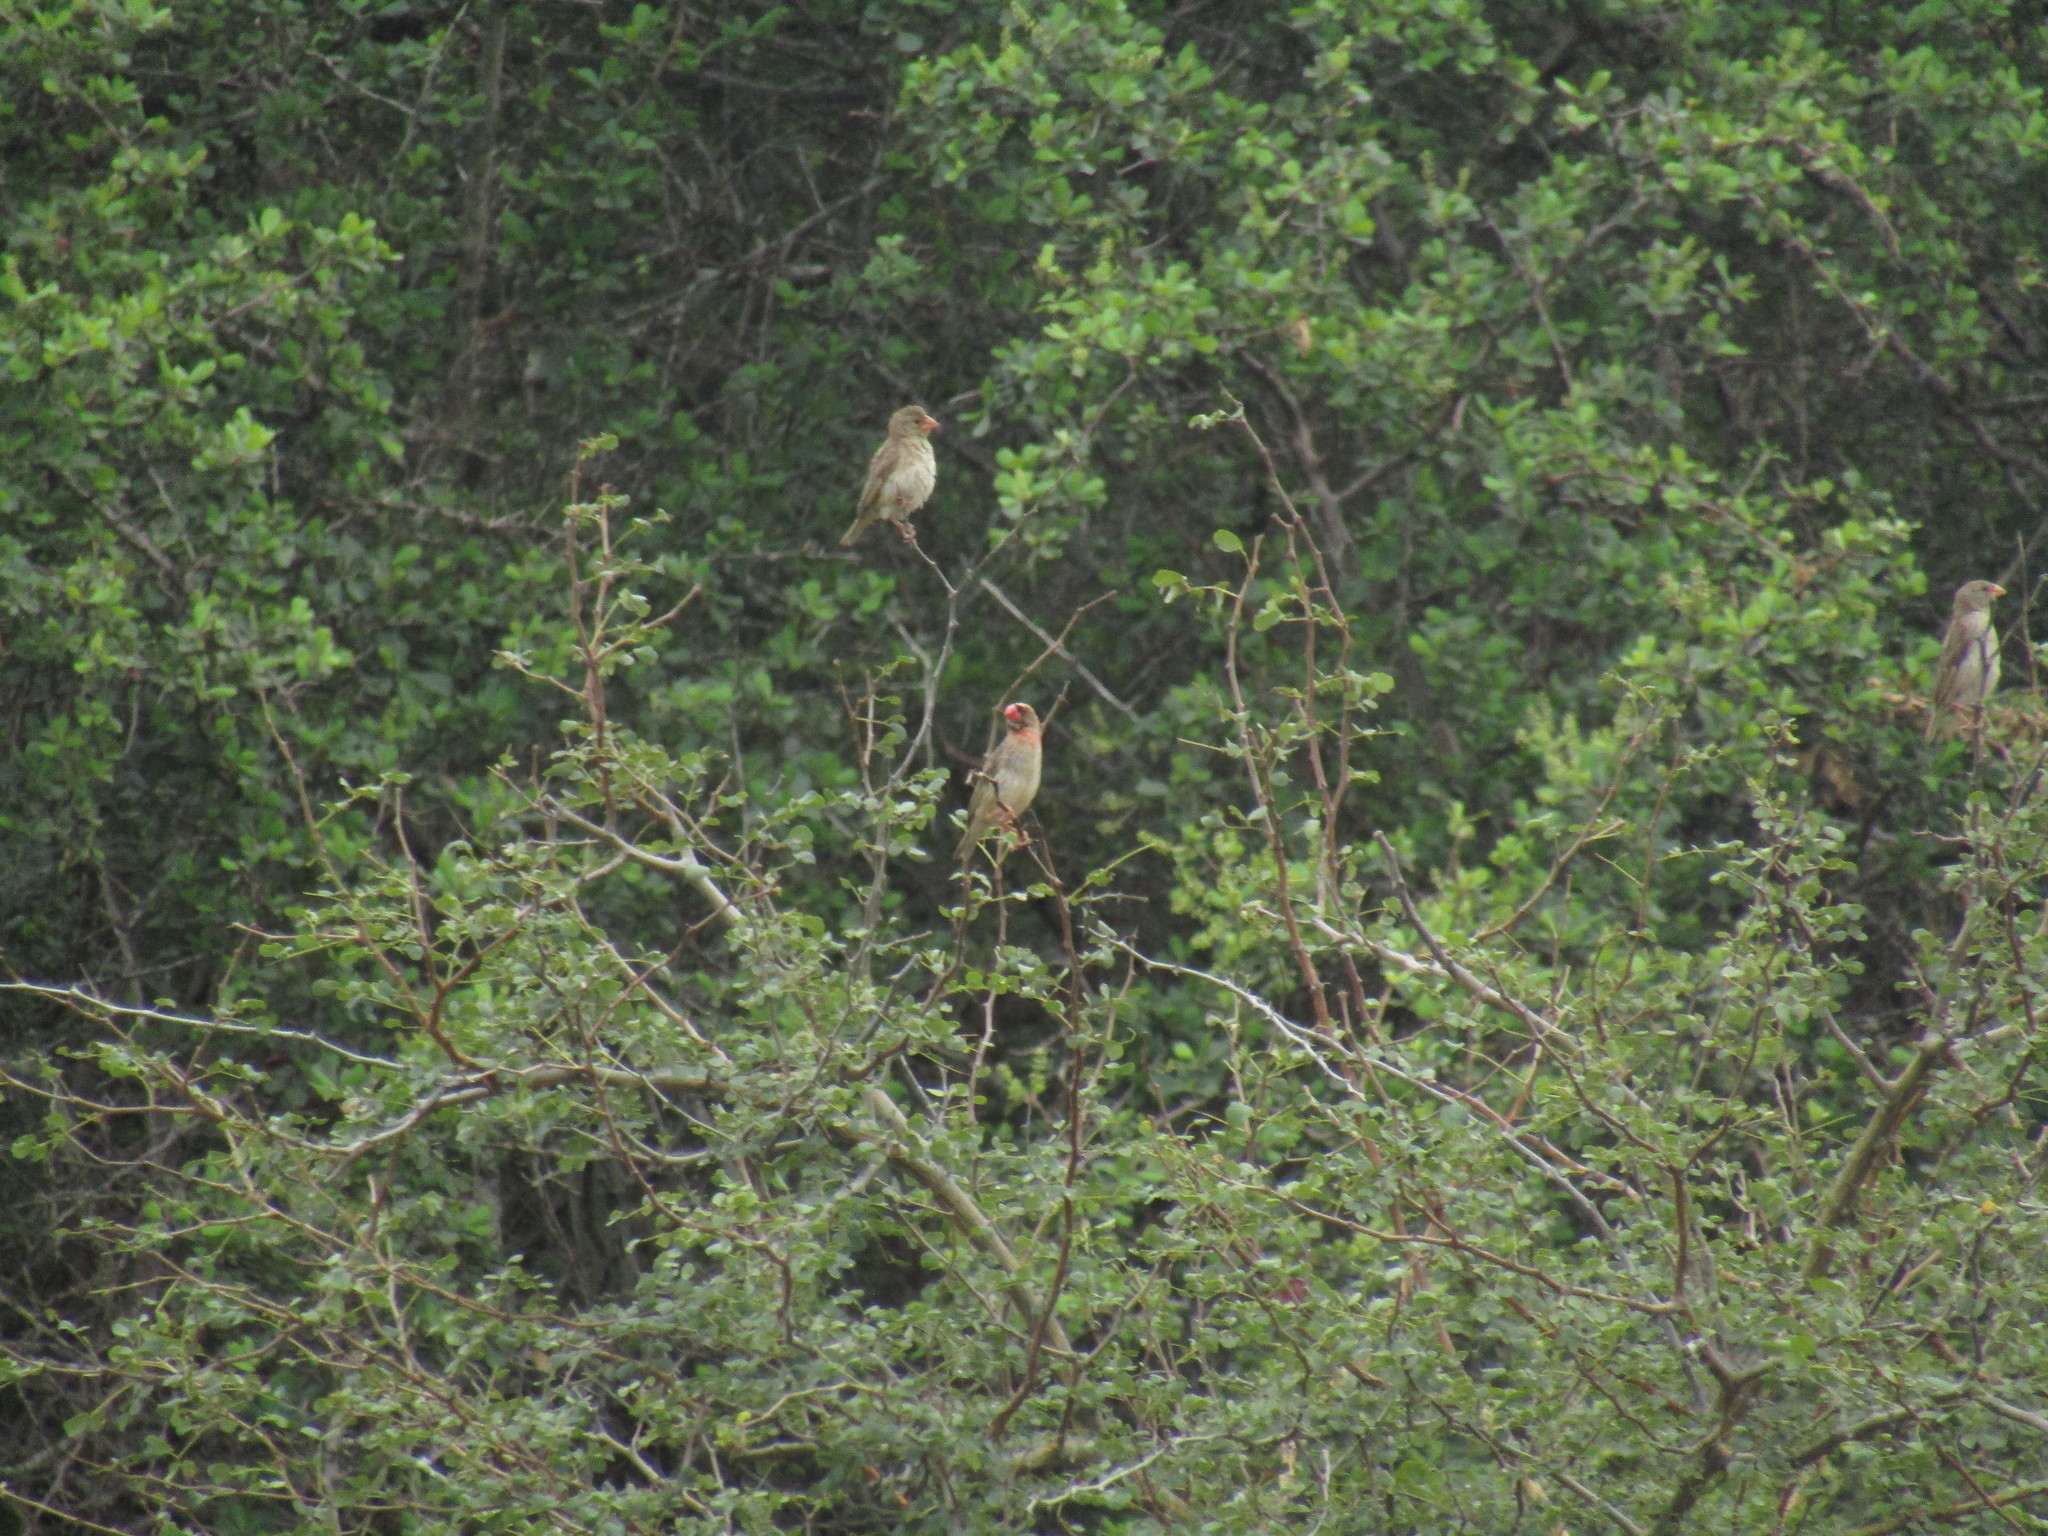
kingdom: Animalia
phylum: Chordata
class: Aves
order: Passeriformes
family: Ploceidae
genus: Quelea
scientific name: Quelea quelea
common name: Red-billed quelea
